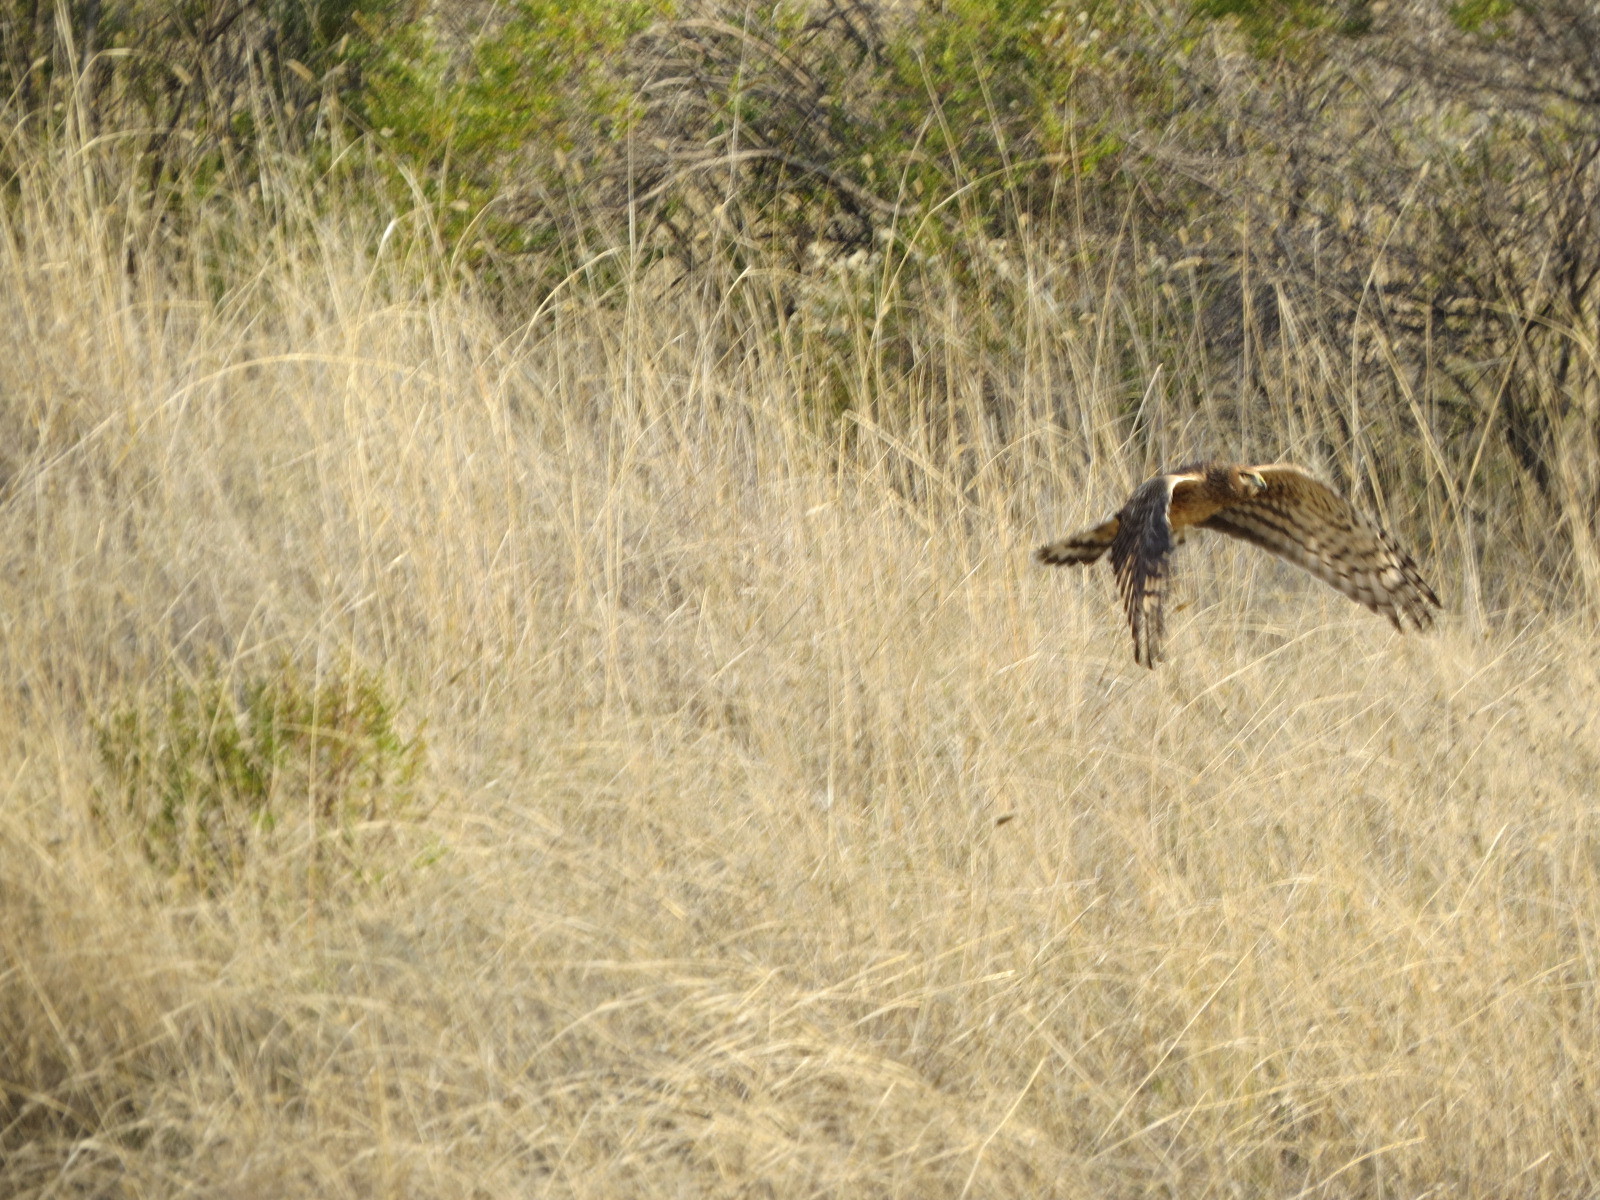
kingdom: Animalia
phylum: Chordata
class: Aves
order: Accipitriformes
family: Accipitridae
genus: Circus
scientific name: Circus cyaneus
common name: Hen harrier
